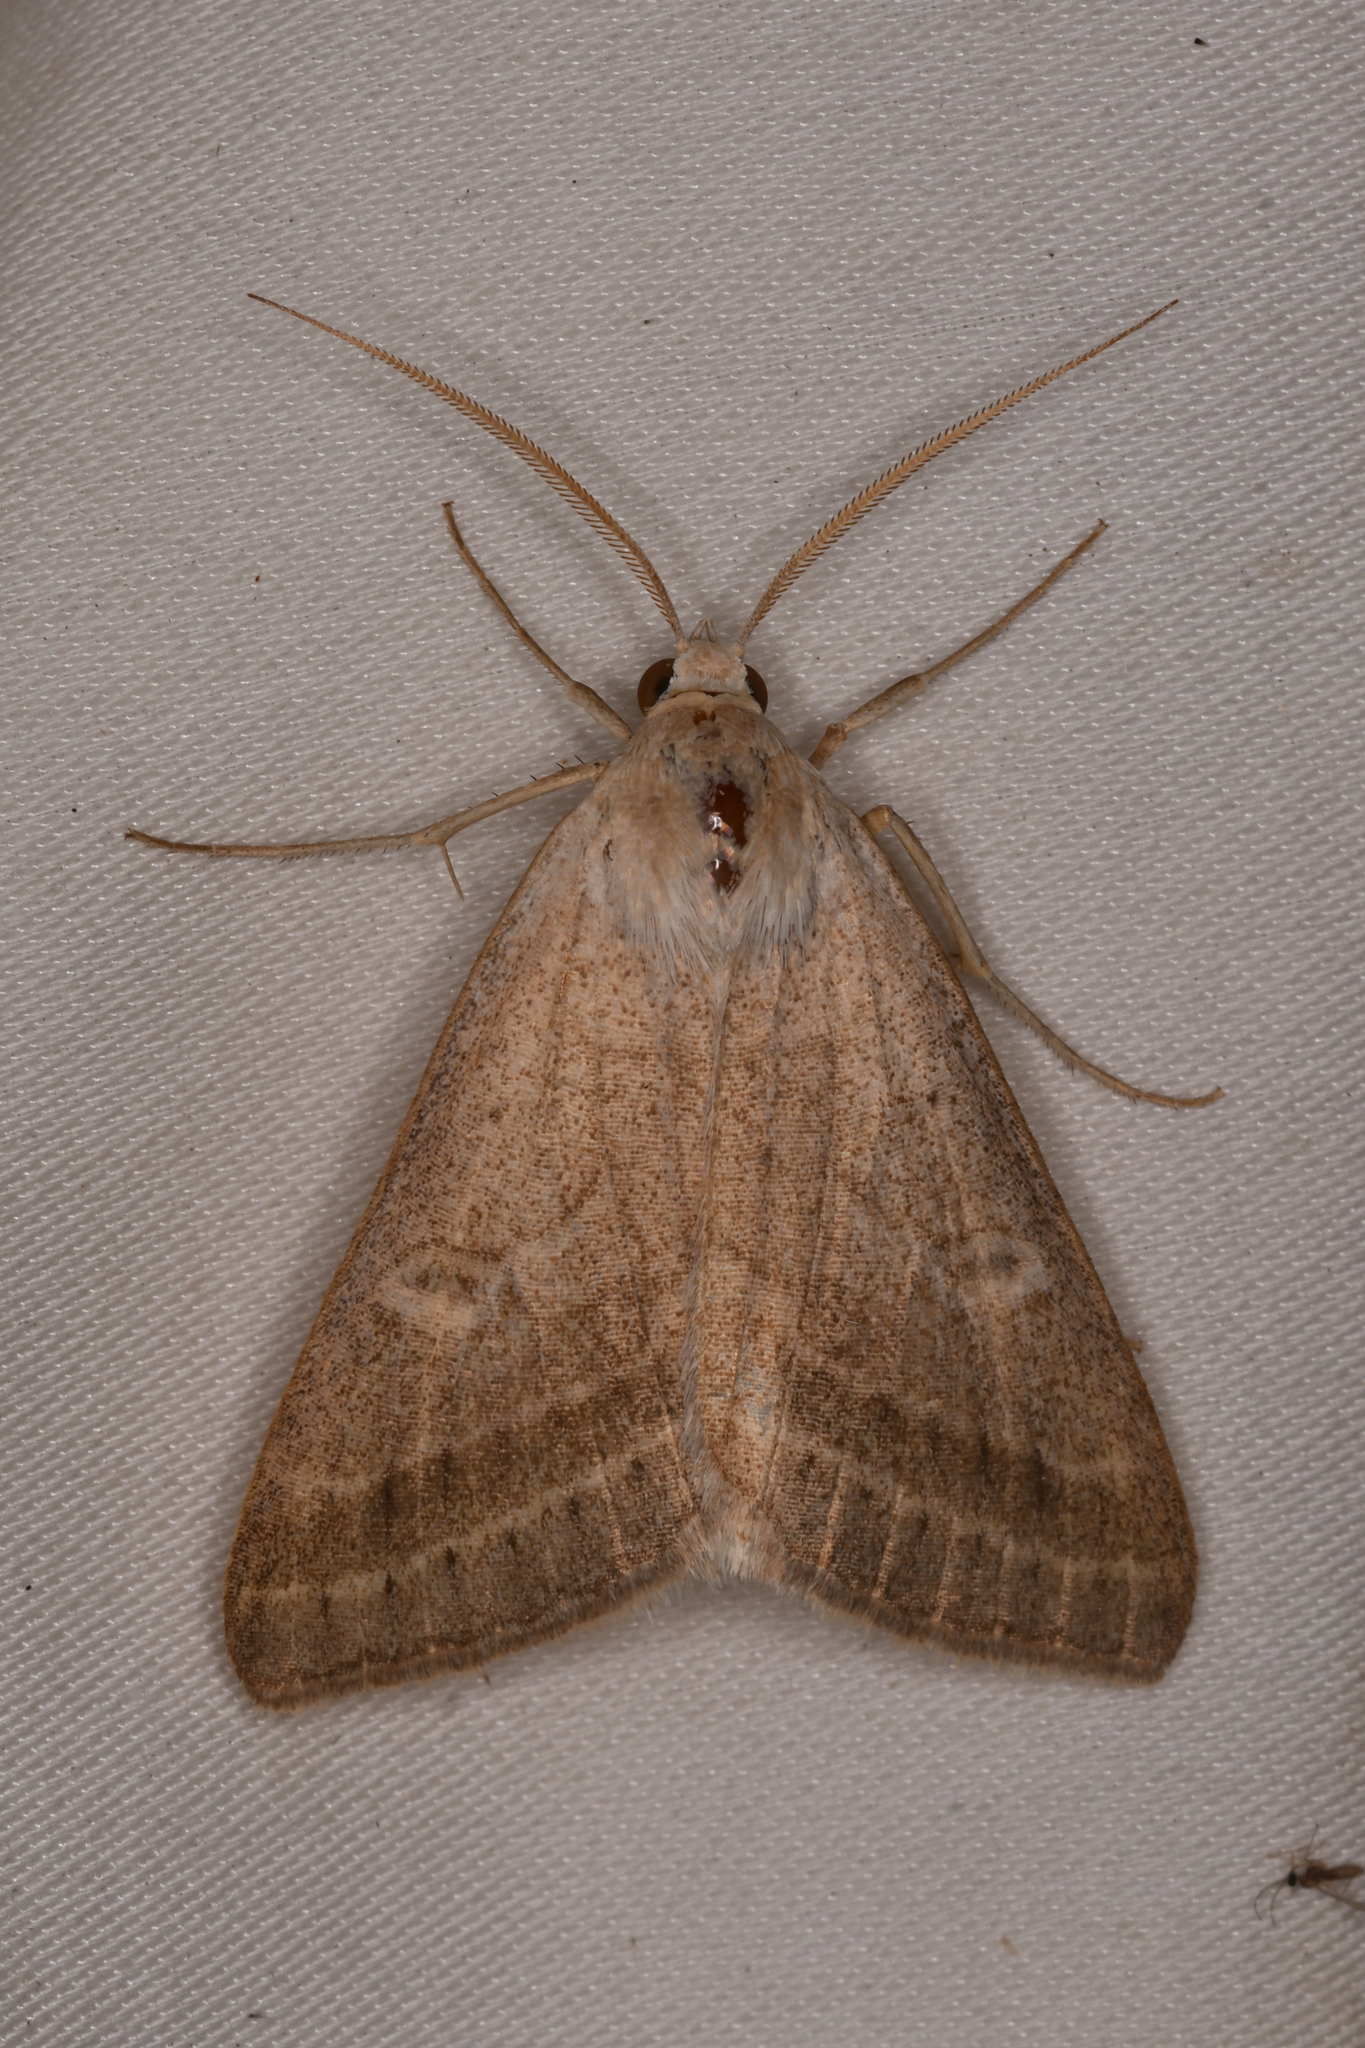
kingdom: Animalia
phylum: Arthropoda
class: Insecta
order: Lepidoptera
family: Erebidae
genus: Caenurgia
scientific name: Caenurgia togataria
